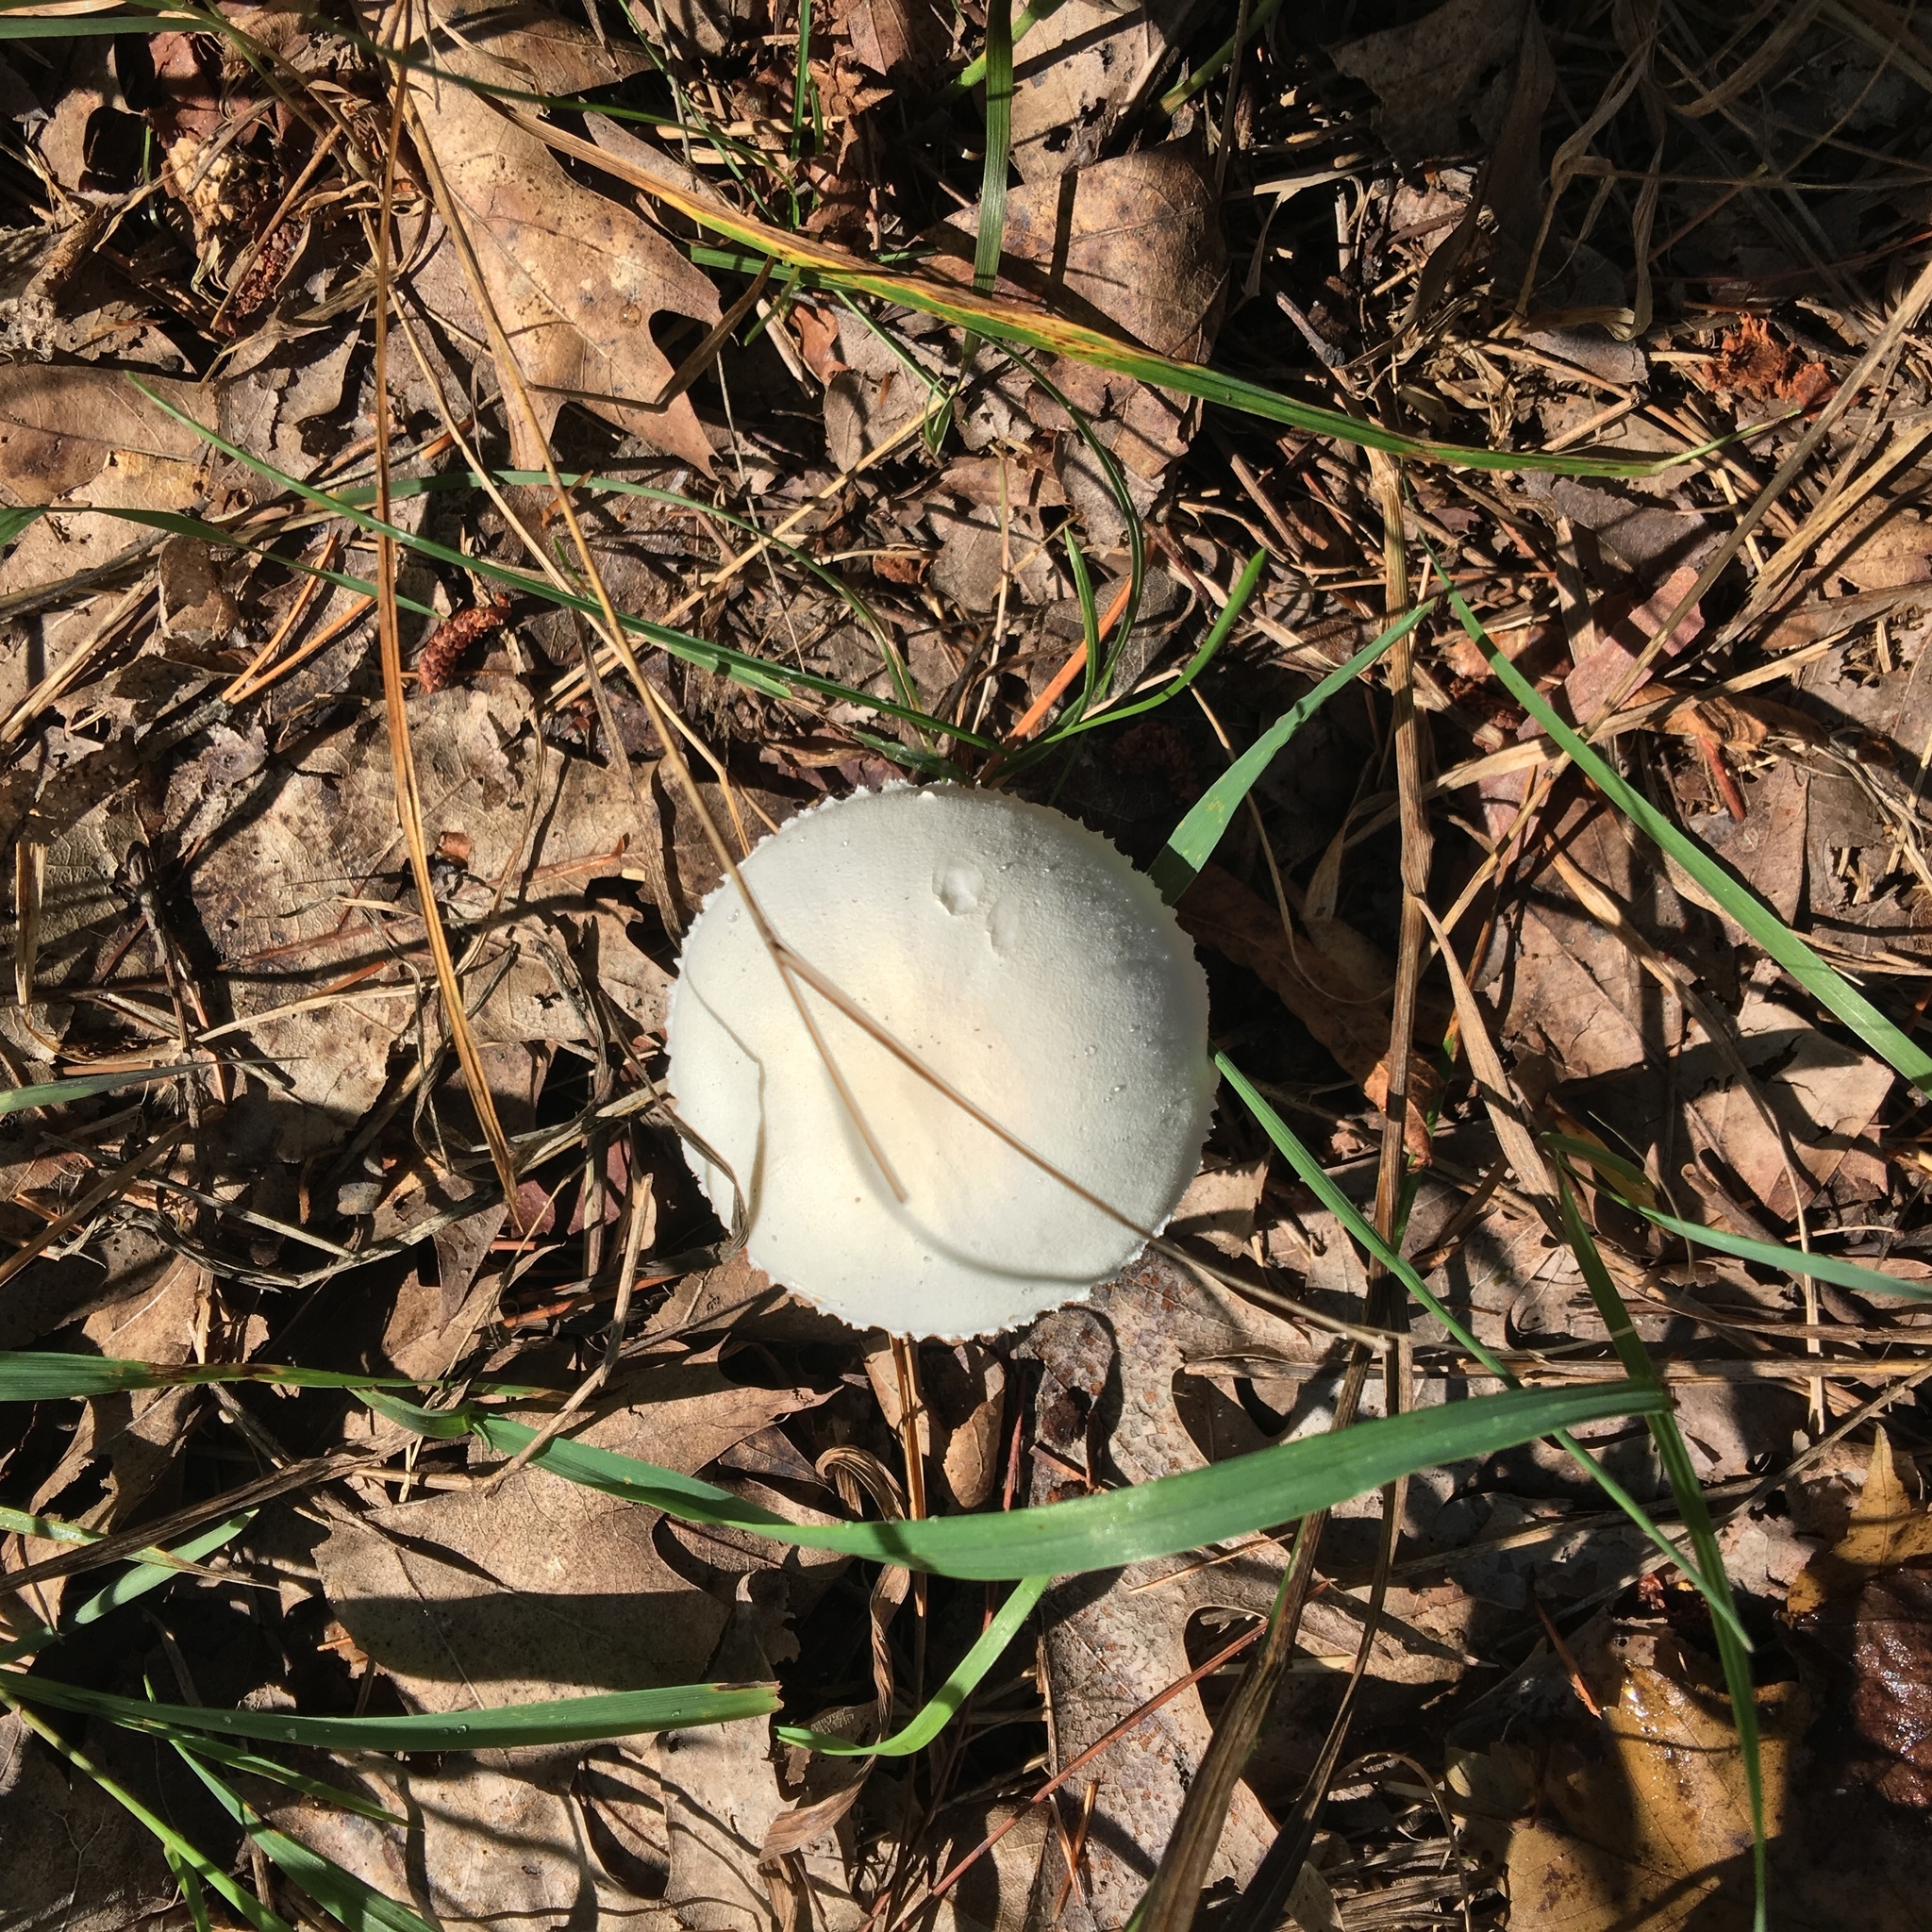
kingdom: Fungi
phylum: Basidiomycota
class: Agaricomycetes
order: Agaricales
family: Agaricaceae
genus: Leucoagaricus
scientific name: Leucoagaricus leucothites
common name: White dapperling
